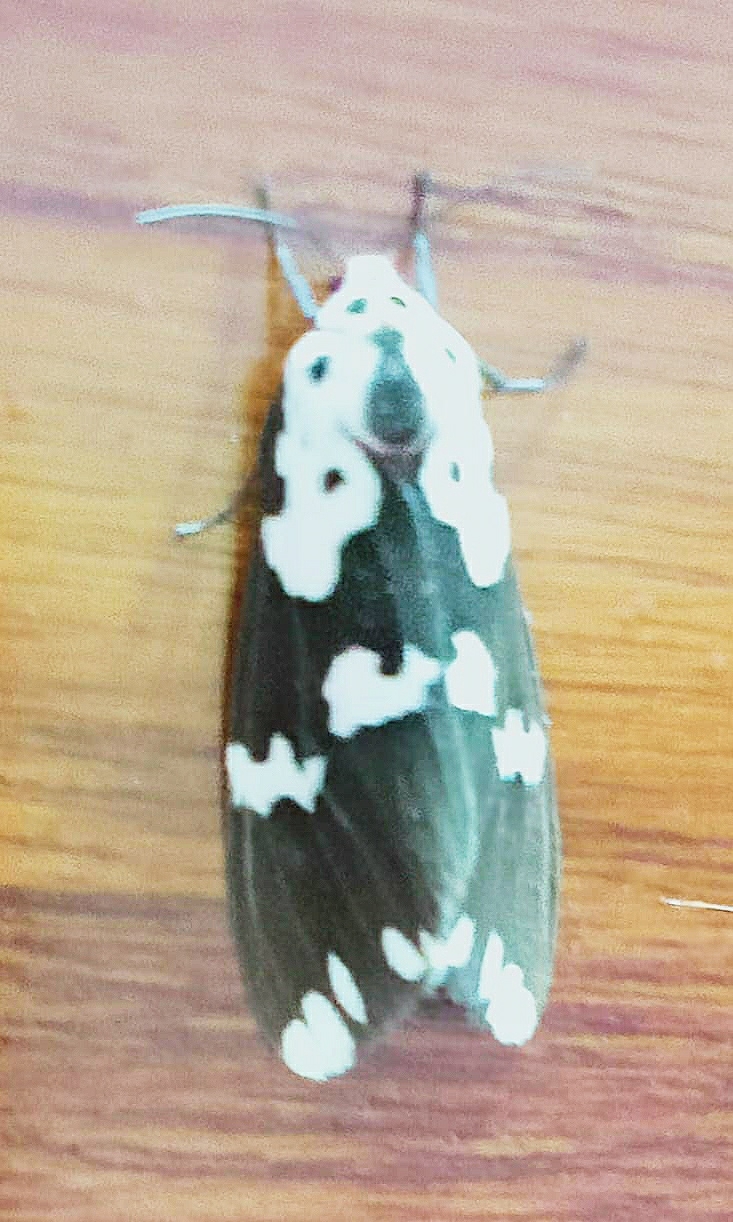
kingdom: Animalia
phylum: Arthropoda
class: Insecta
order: Lepidoptera
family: Erebidae
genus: Pericallia
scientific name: Pericallia
